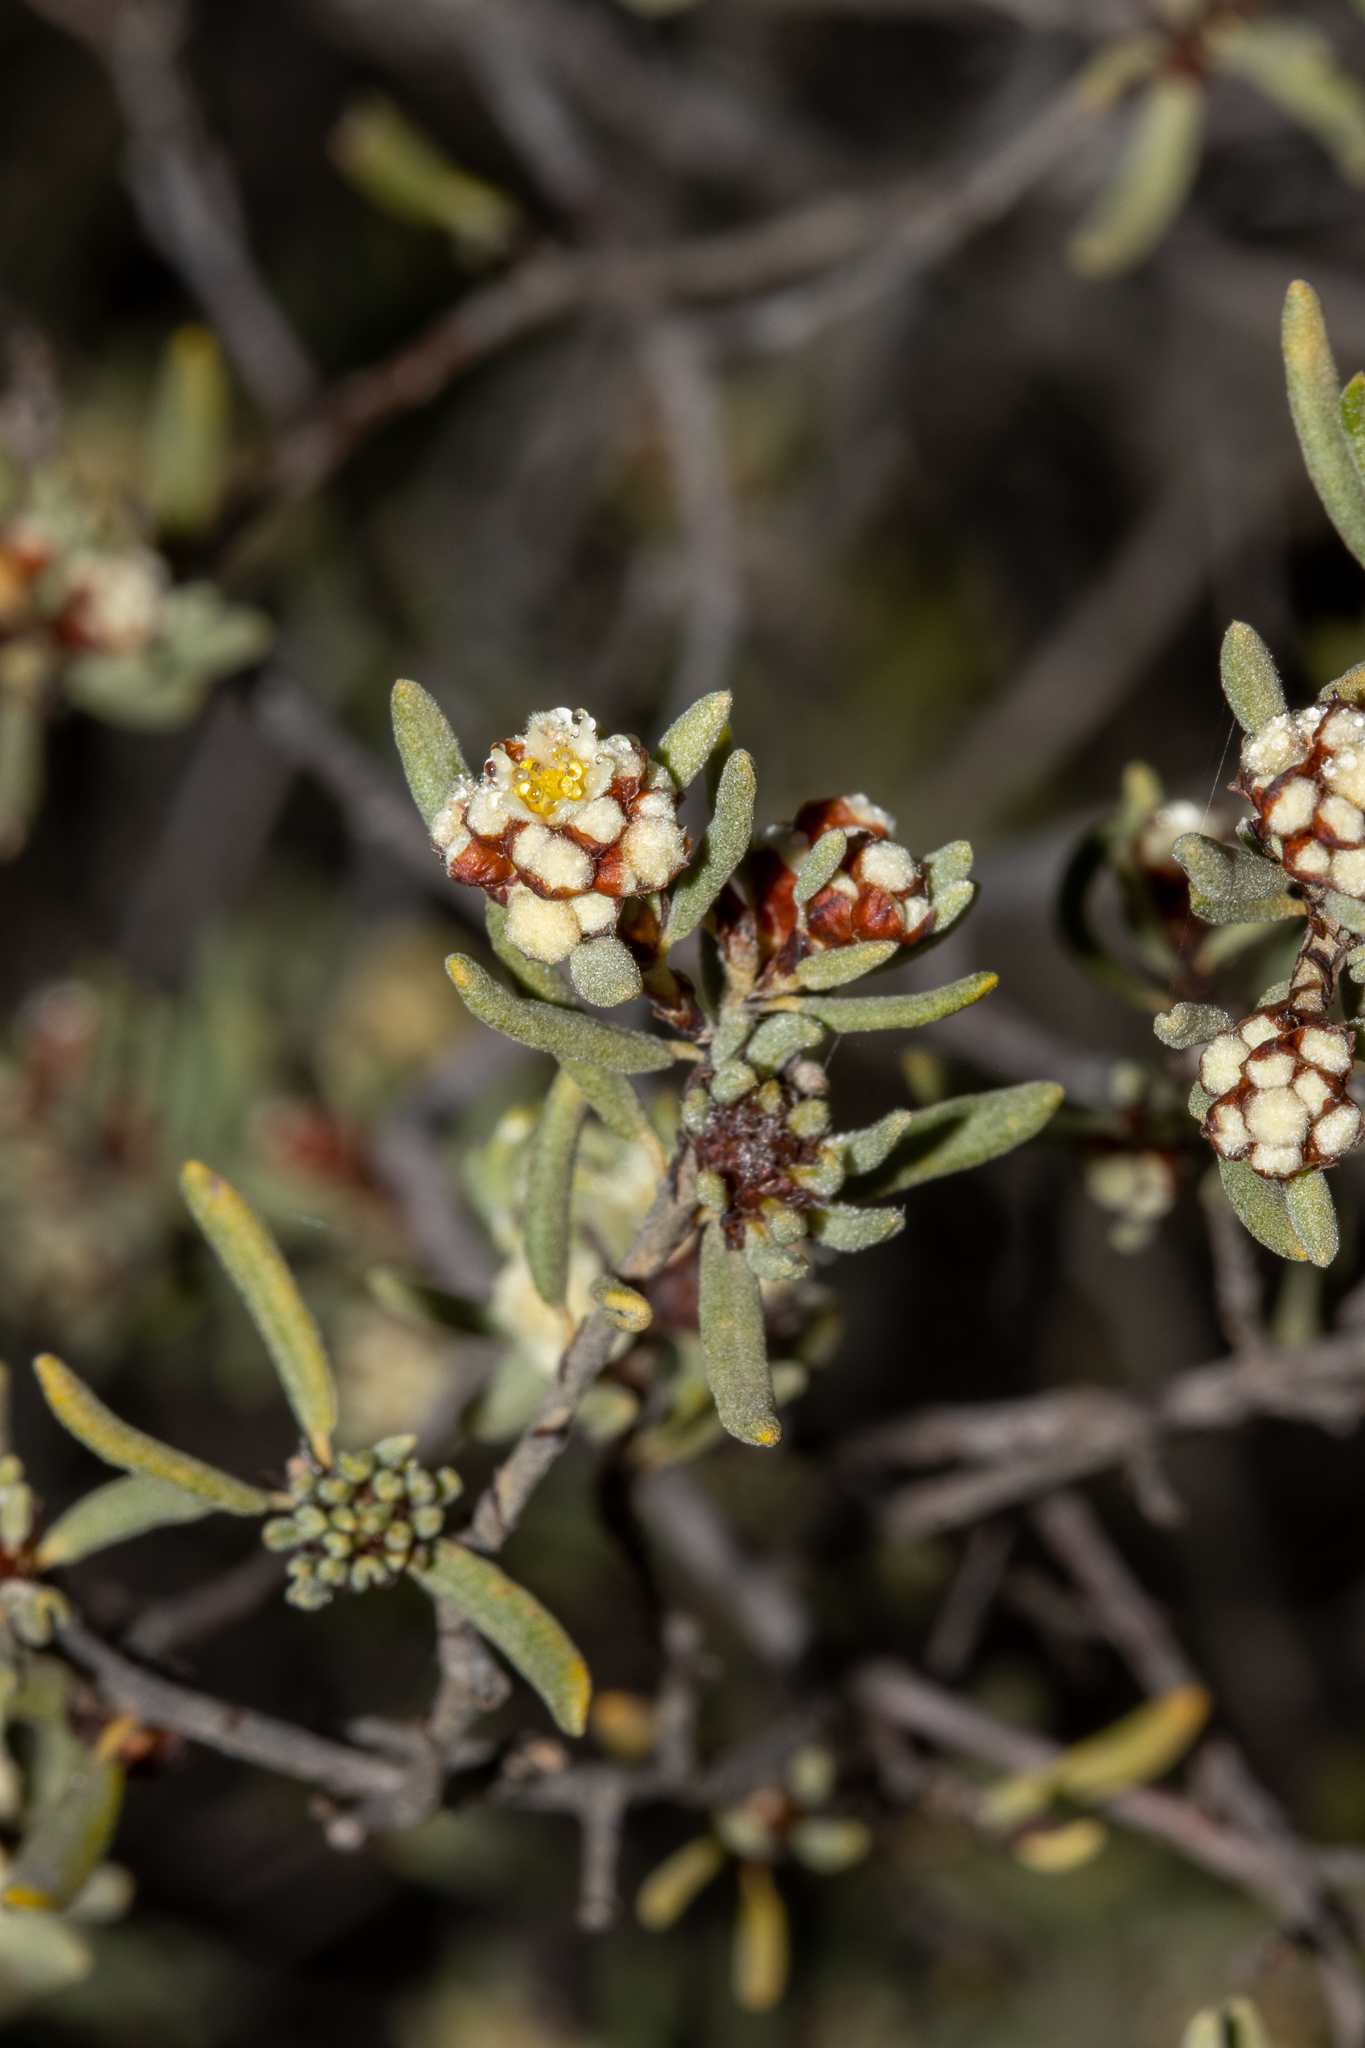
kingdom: Plantae
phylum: Tracheophyta
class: Magnoliopsida
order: Rosales
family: Rhamnaceae
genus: Spyridium
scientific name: Spyridium subochreatum
